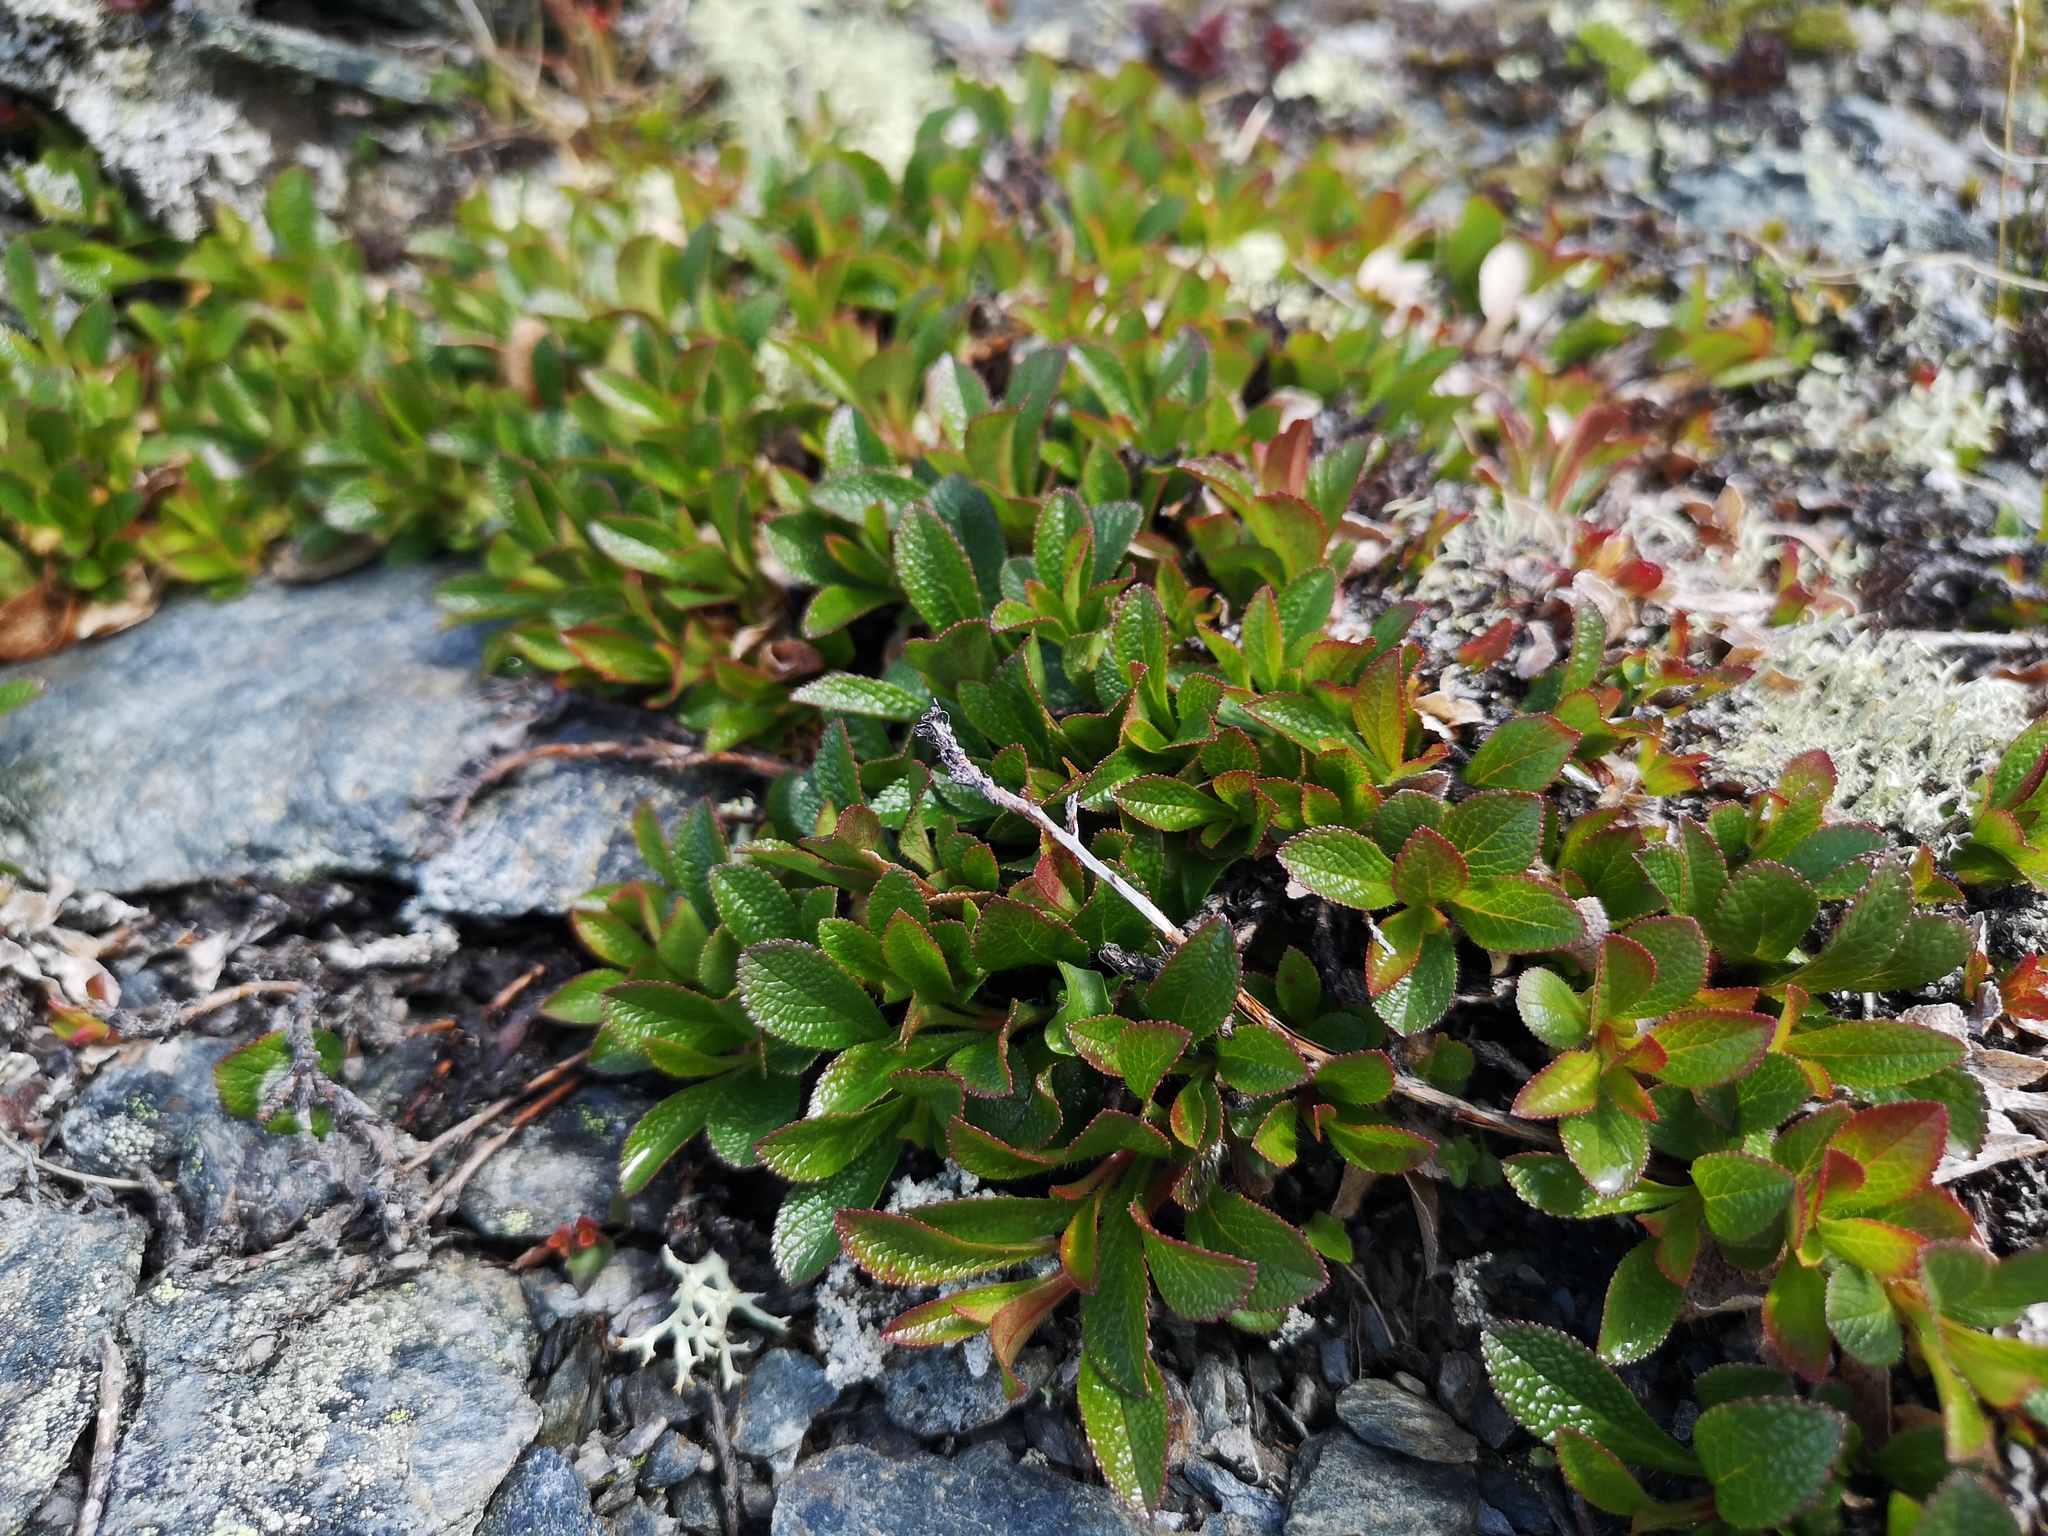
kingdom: Plantae
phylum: Tracheophyta
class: Magnoliopsida
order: Ericales
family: Ericaceae
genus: Arctostaphylos
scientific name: Arctostaphylos alpinus
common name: Alpine bearberry
